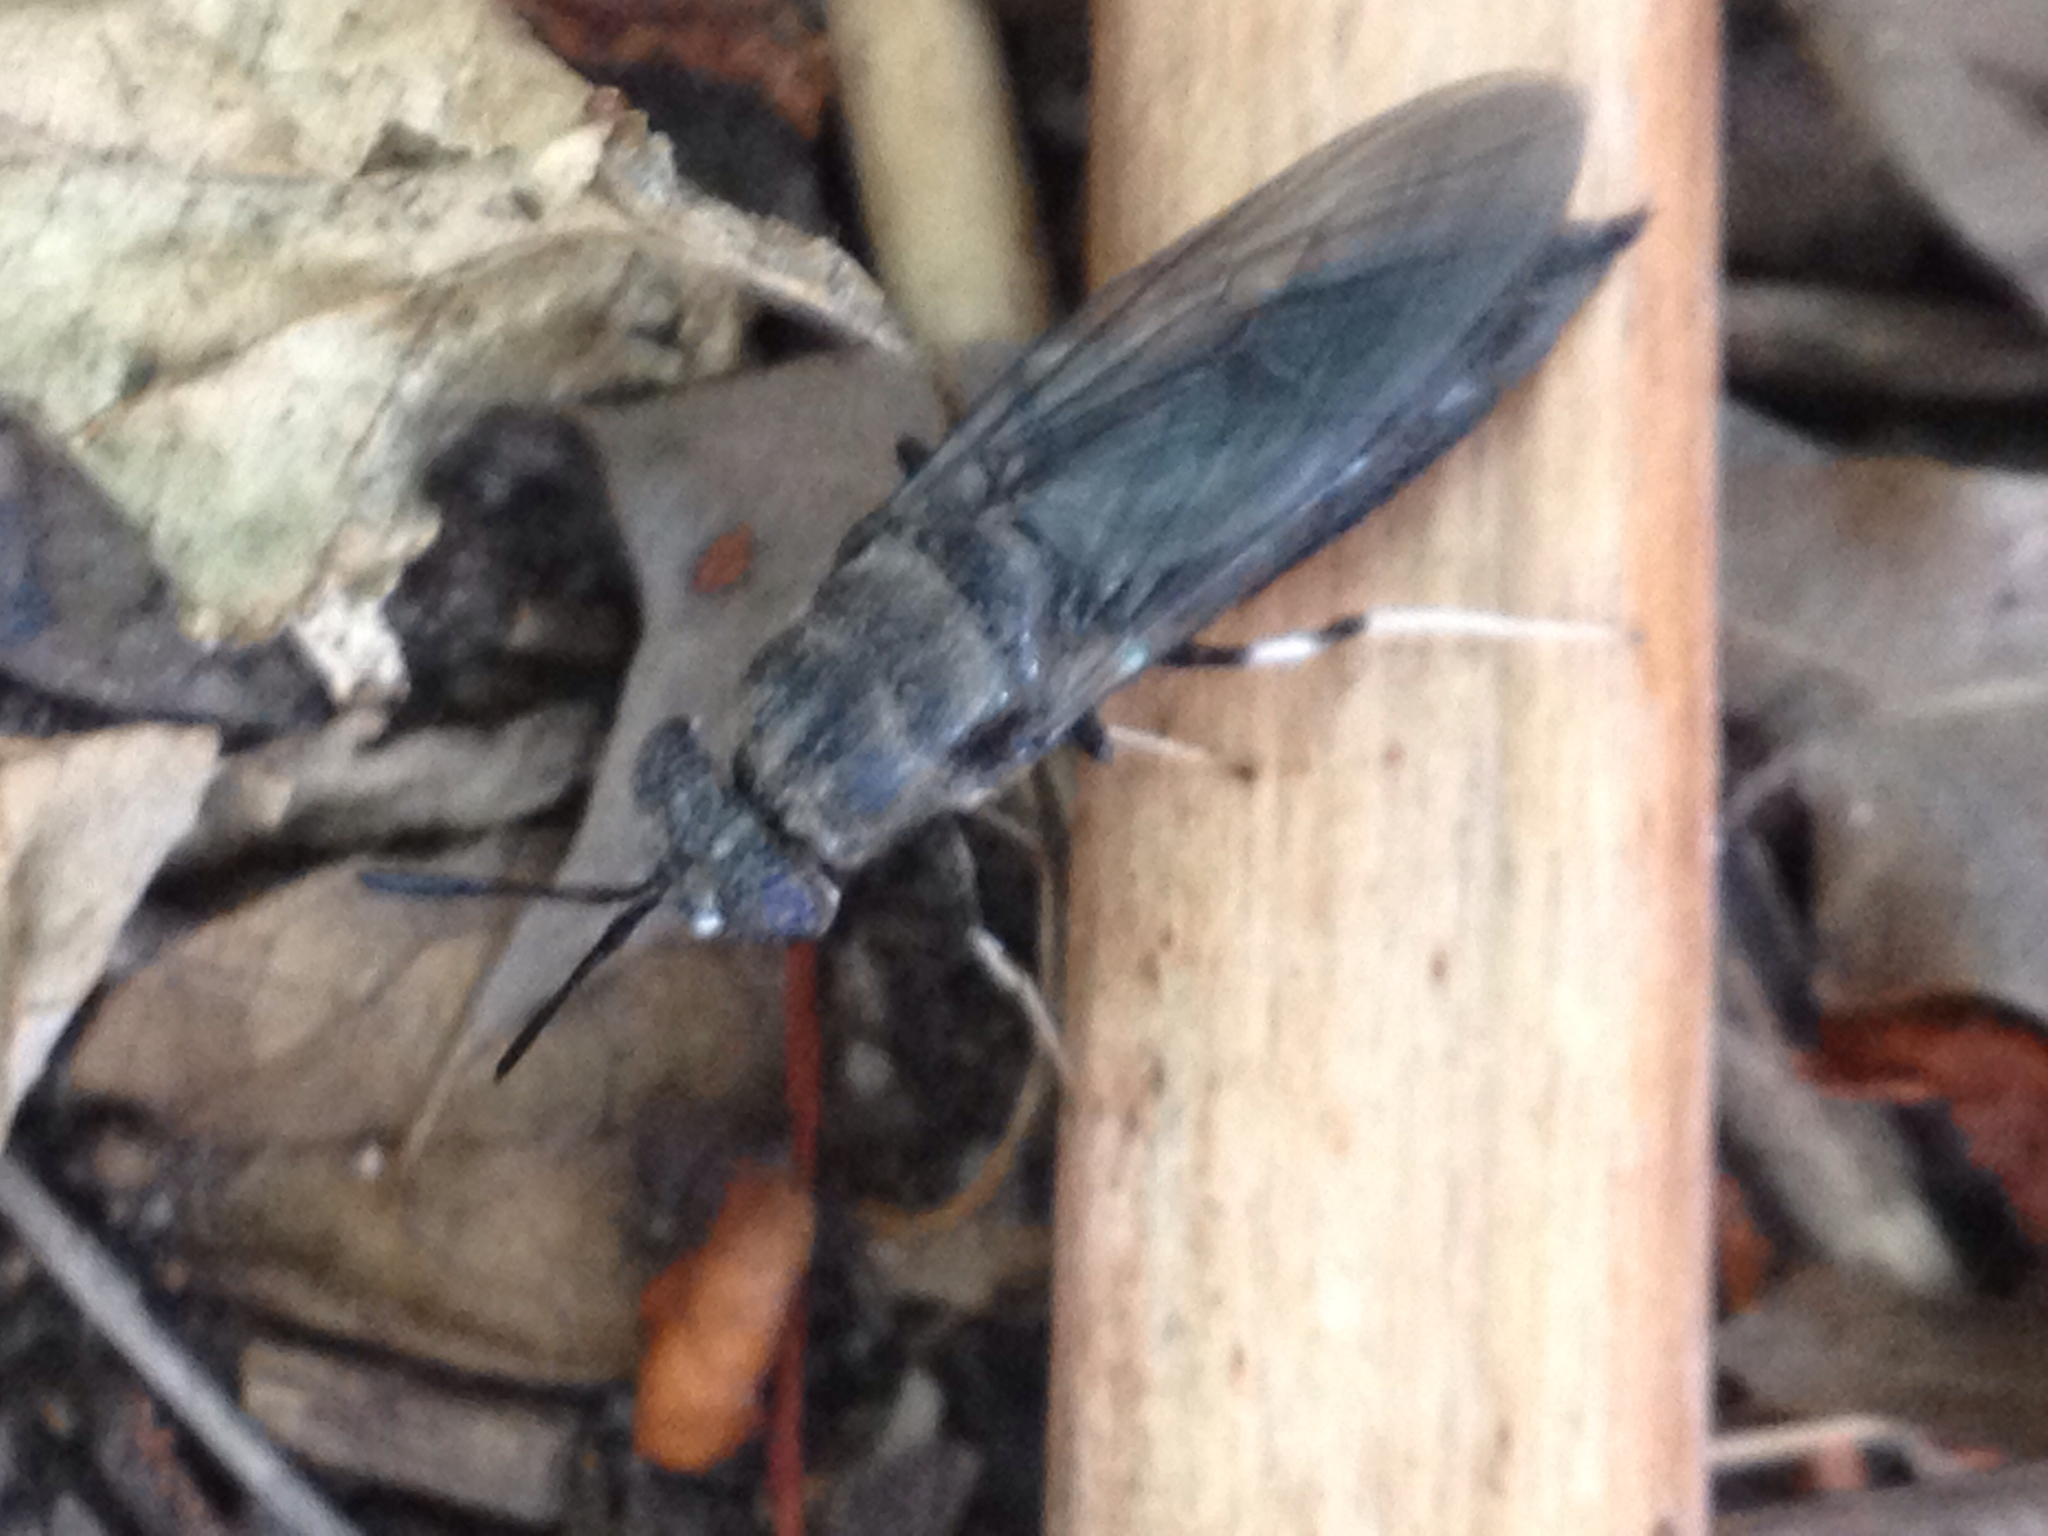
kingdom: Animalia
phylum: Arthropoda
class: Insecta
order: Diptera
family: Stratiomyidae
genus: Hermetia
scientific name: Hermetia illucens
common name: Black soldier fly
